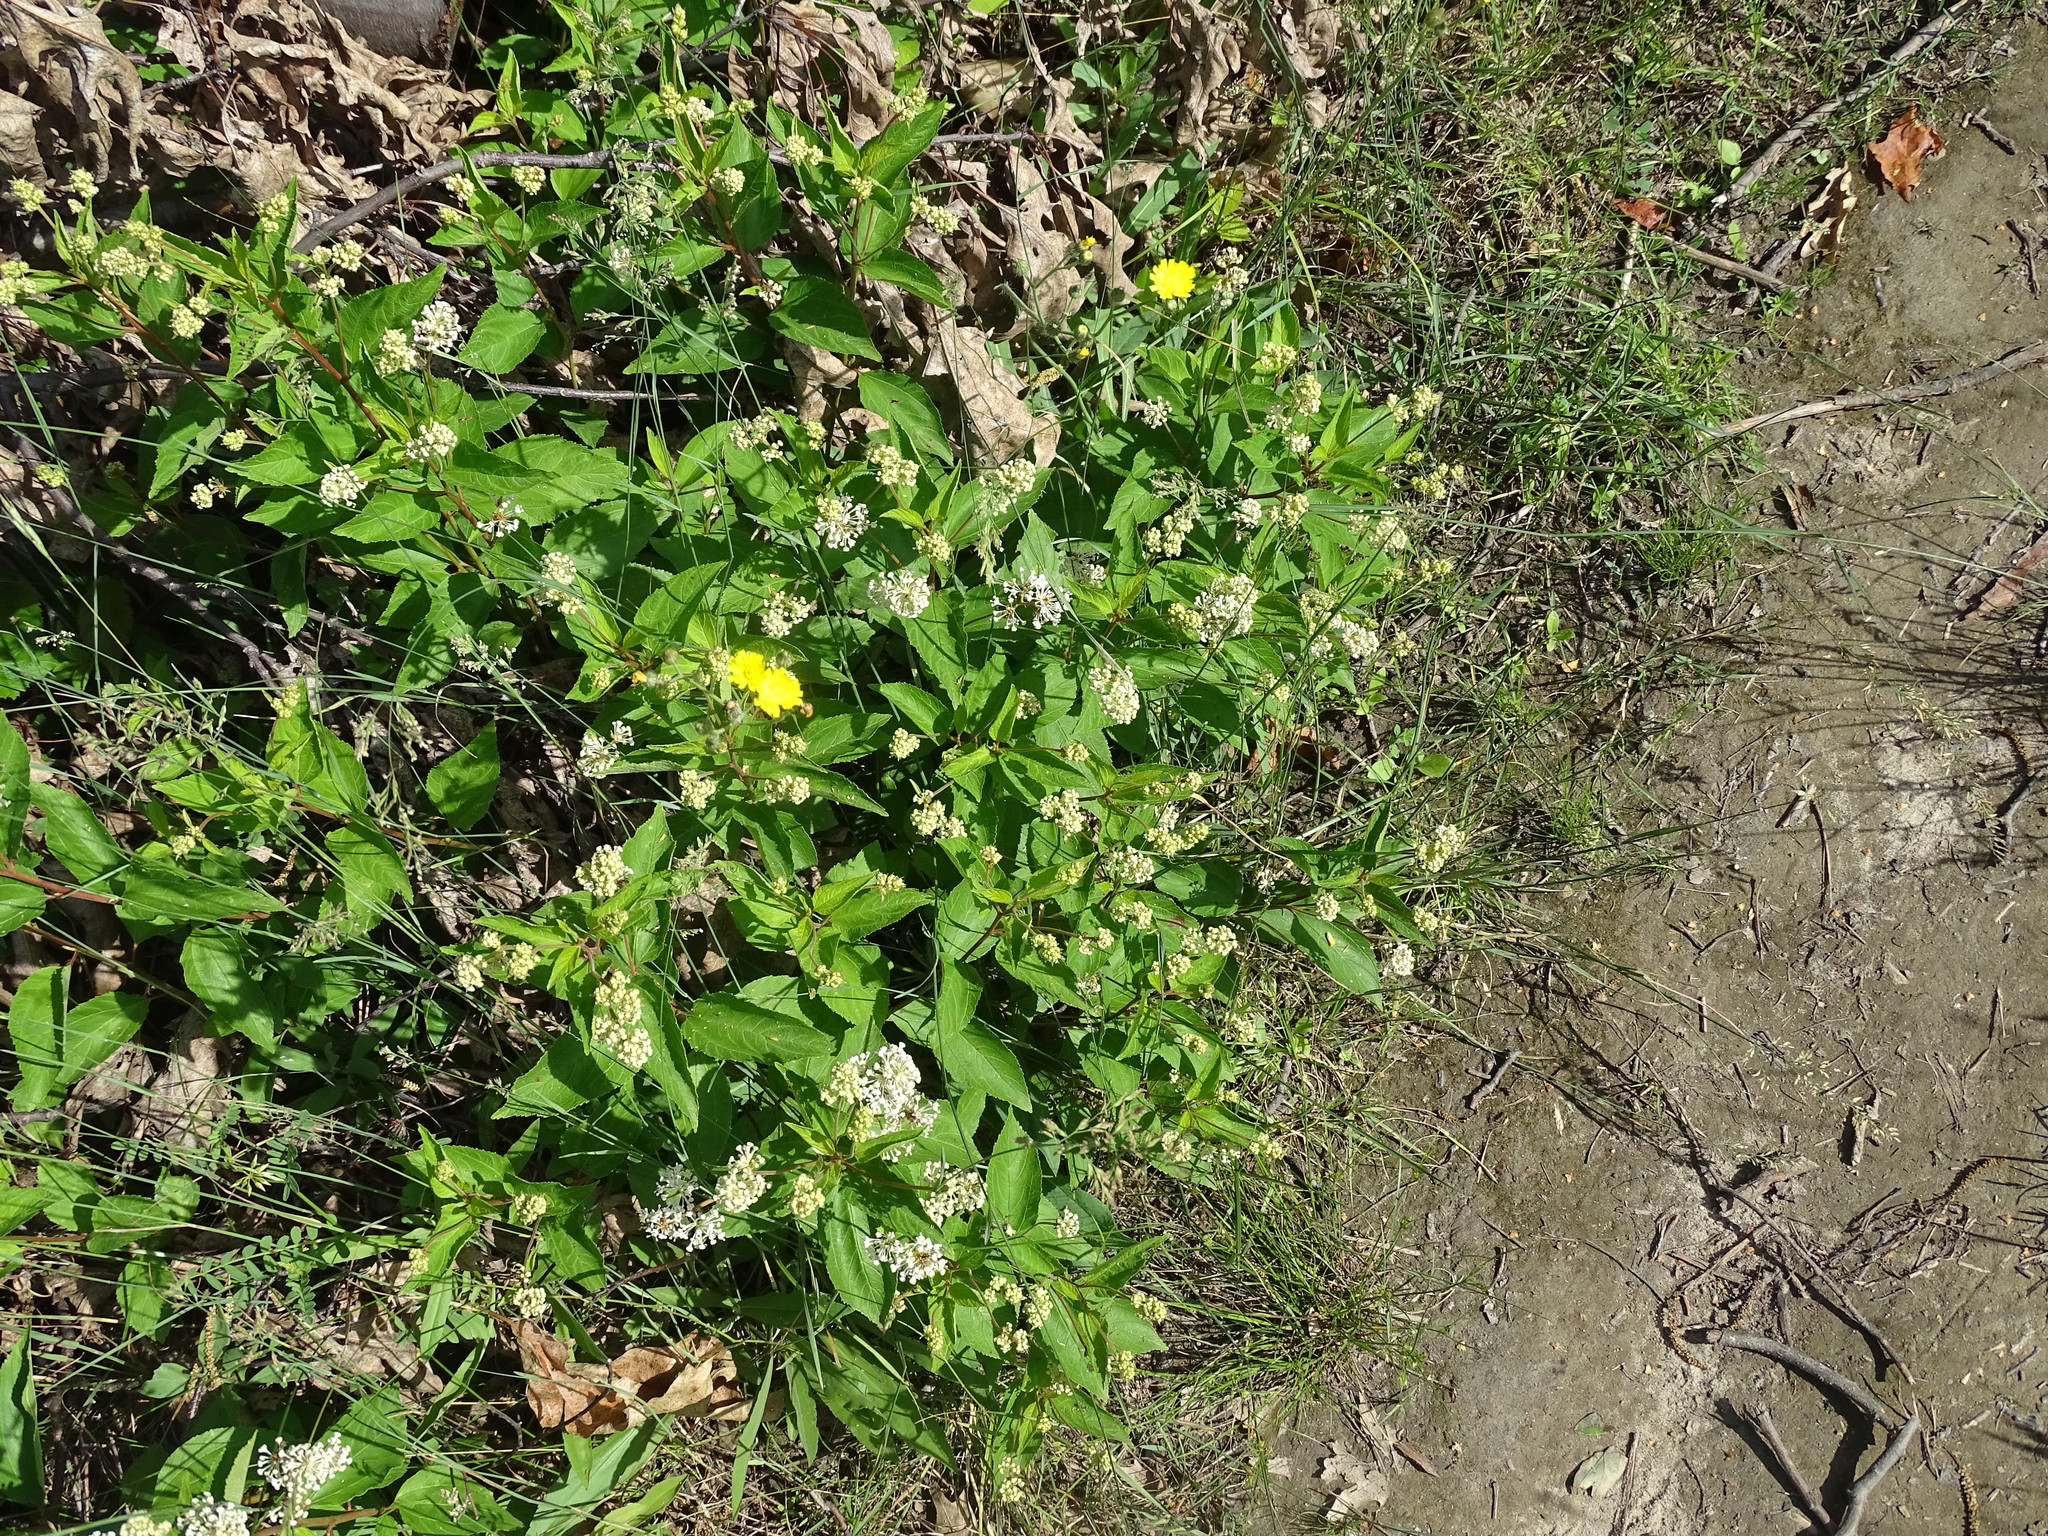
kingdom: Plantae
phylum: Tracheophyta
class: Magnoliopsida
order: Rosales
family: Rhamnaceae
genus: Ceanothus
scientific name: Ceanothus americanus
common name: Redroot
